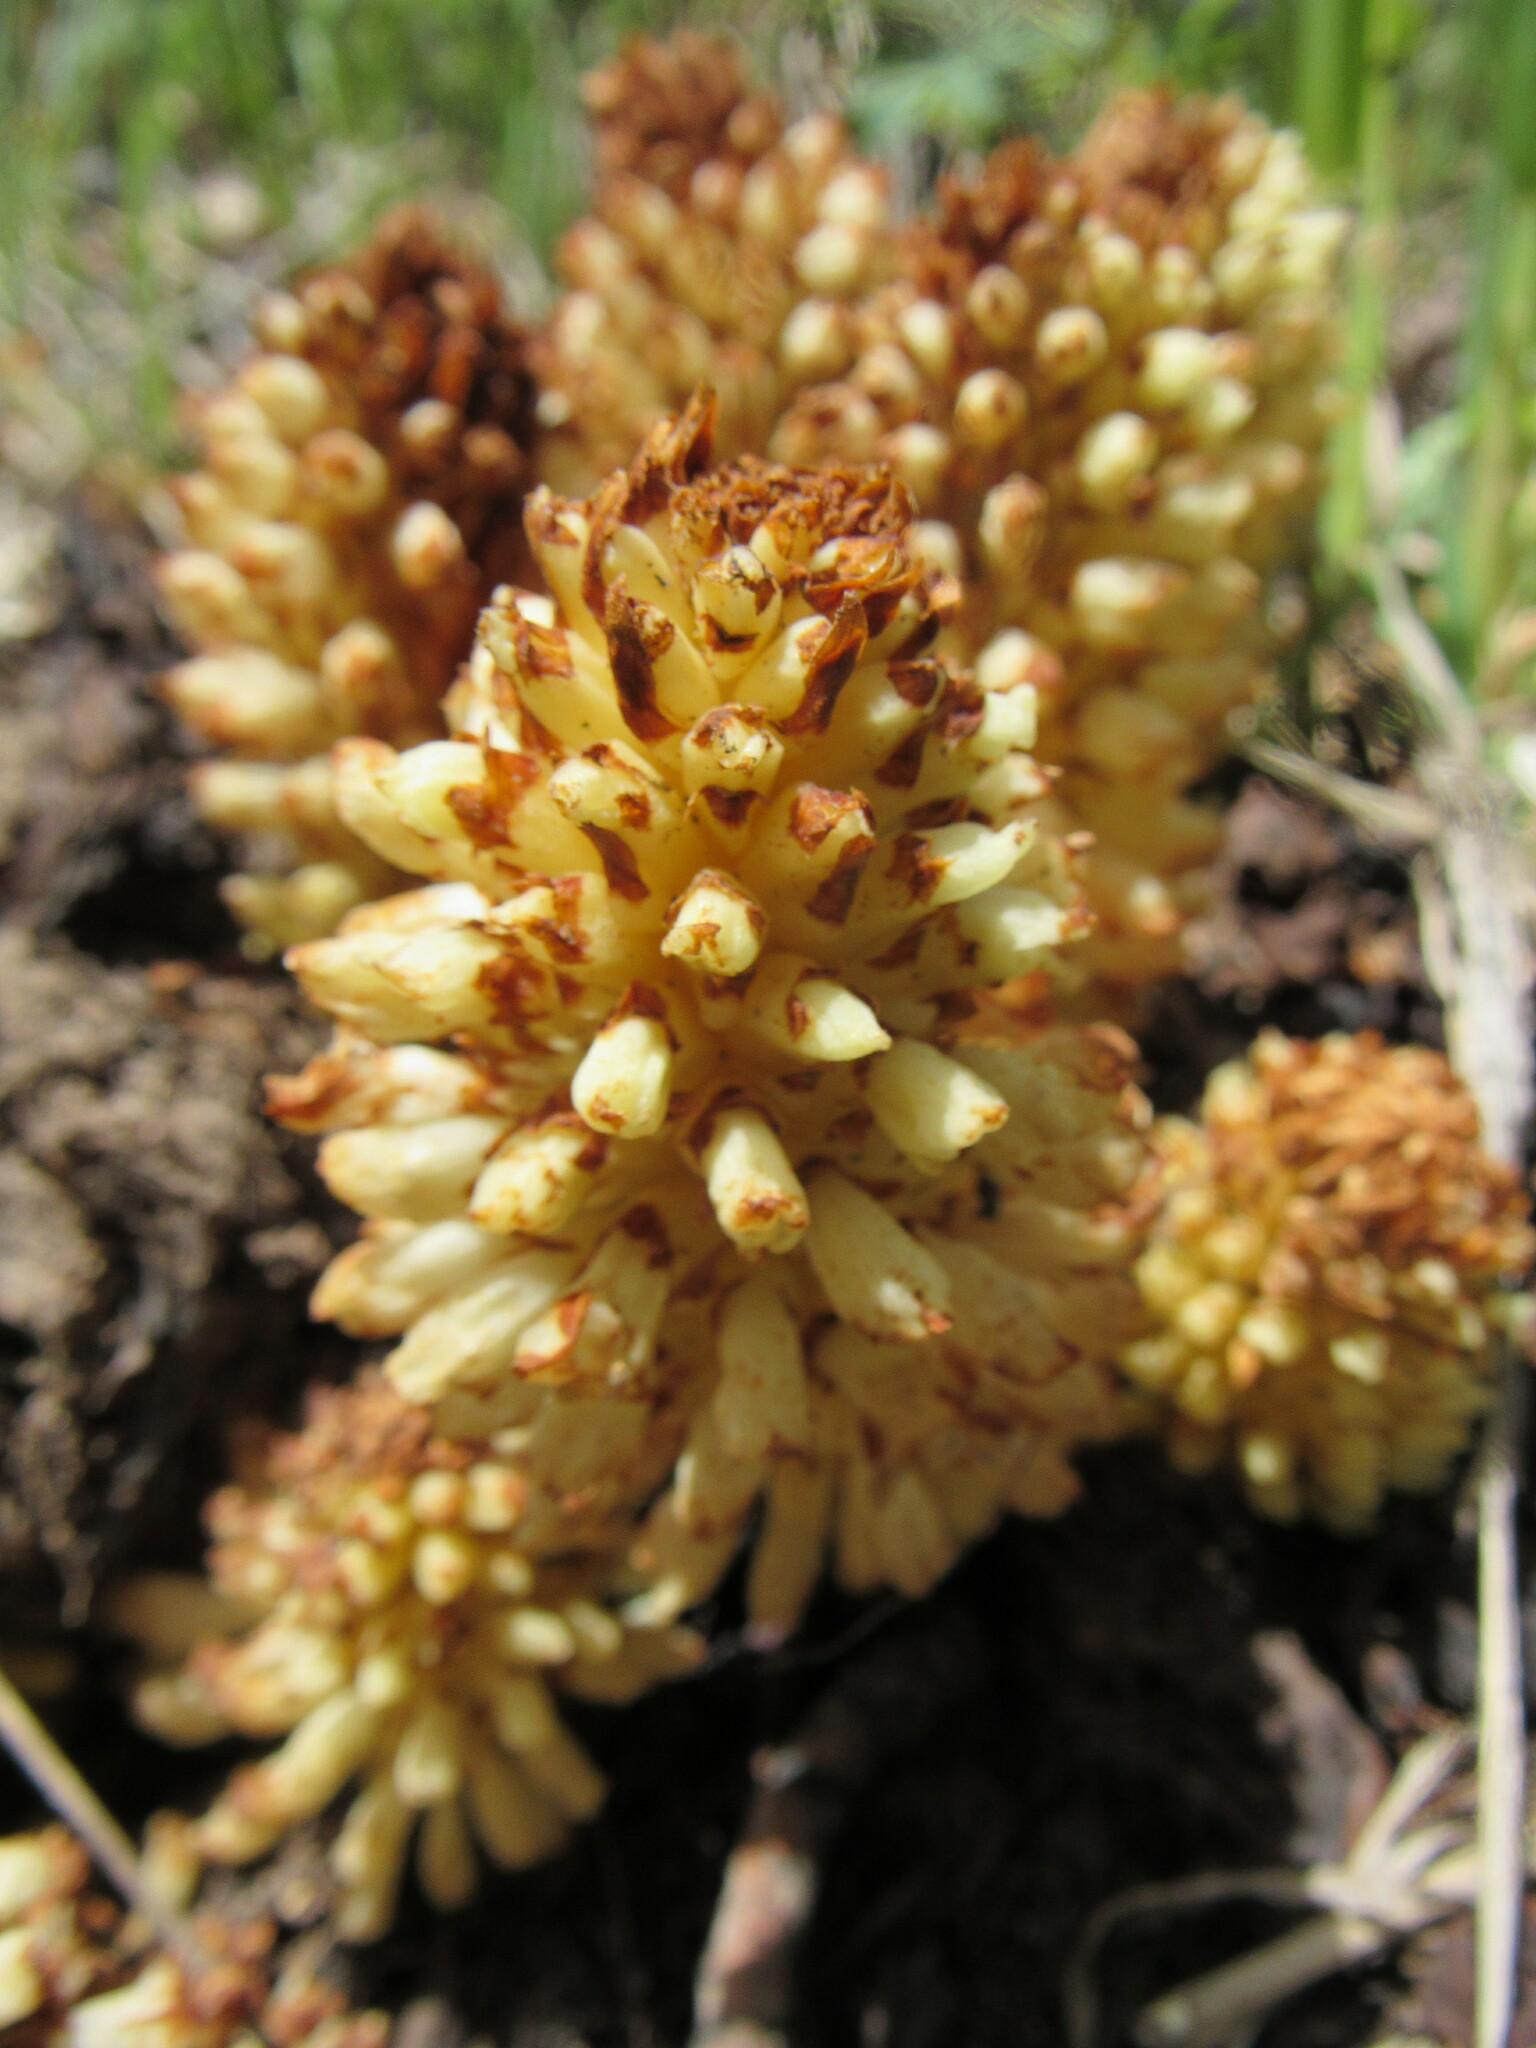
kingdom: Plantae
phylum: Tracheophyta
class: Magnoliopsida
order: Lamiales
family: Orobanchaceae
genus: Conopholis
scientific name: Conopholis alpina
